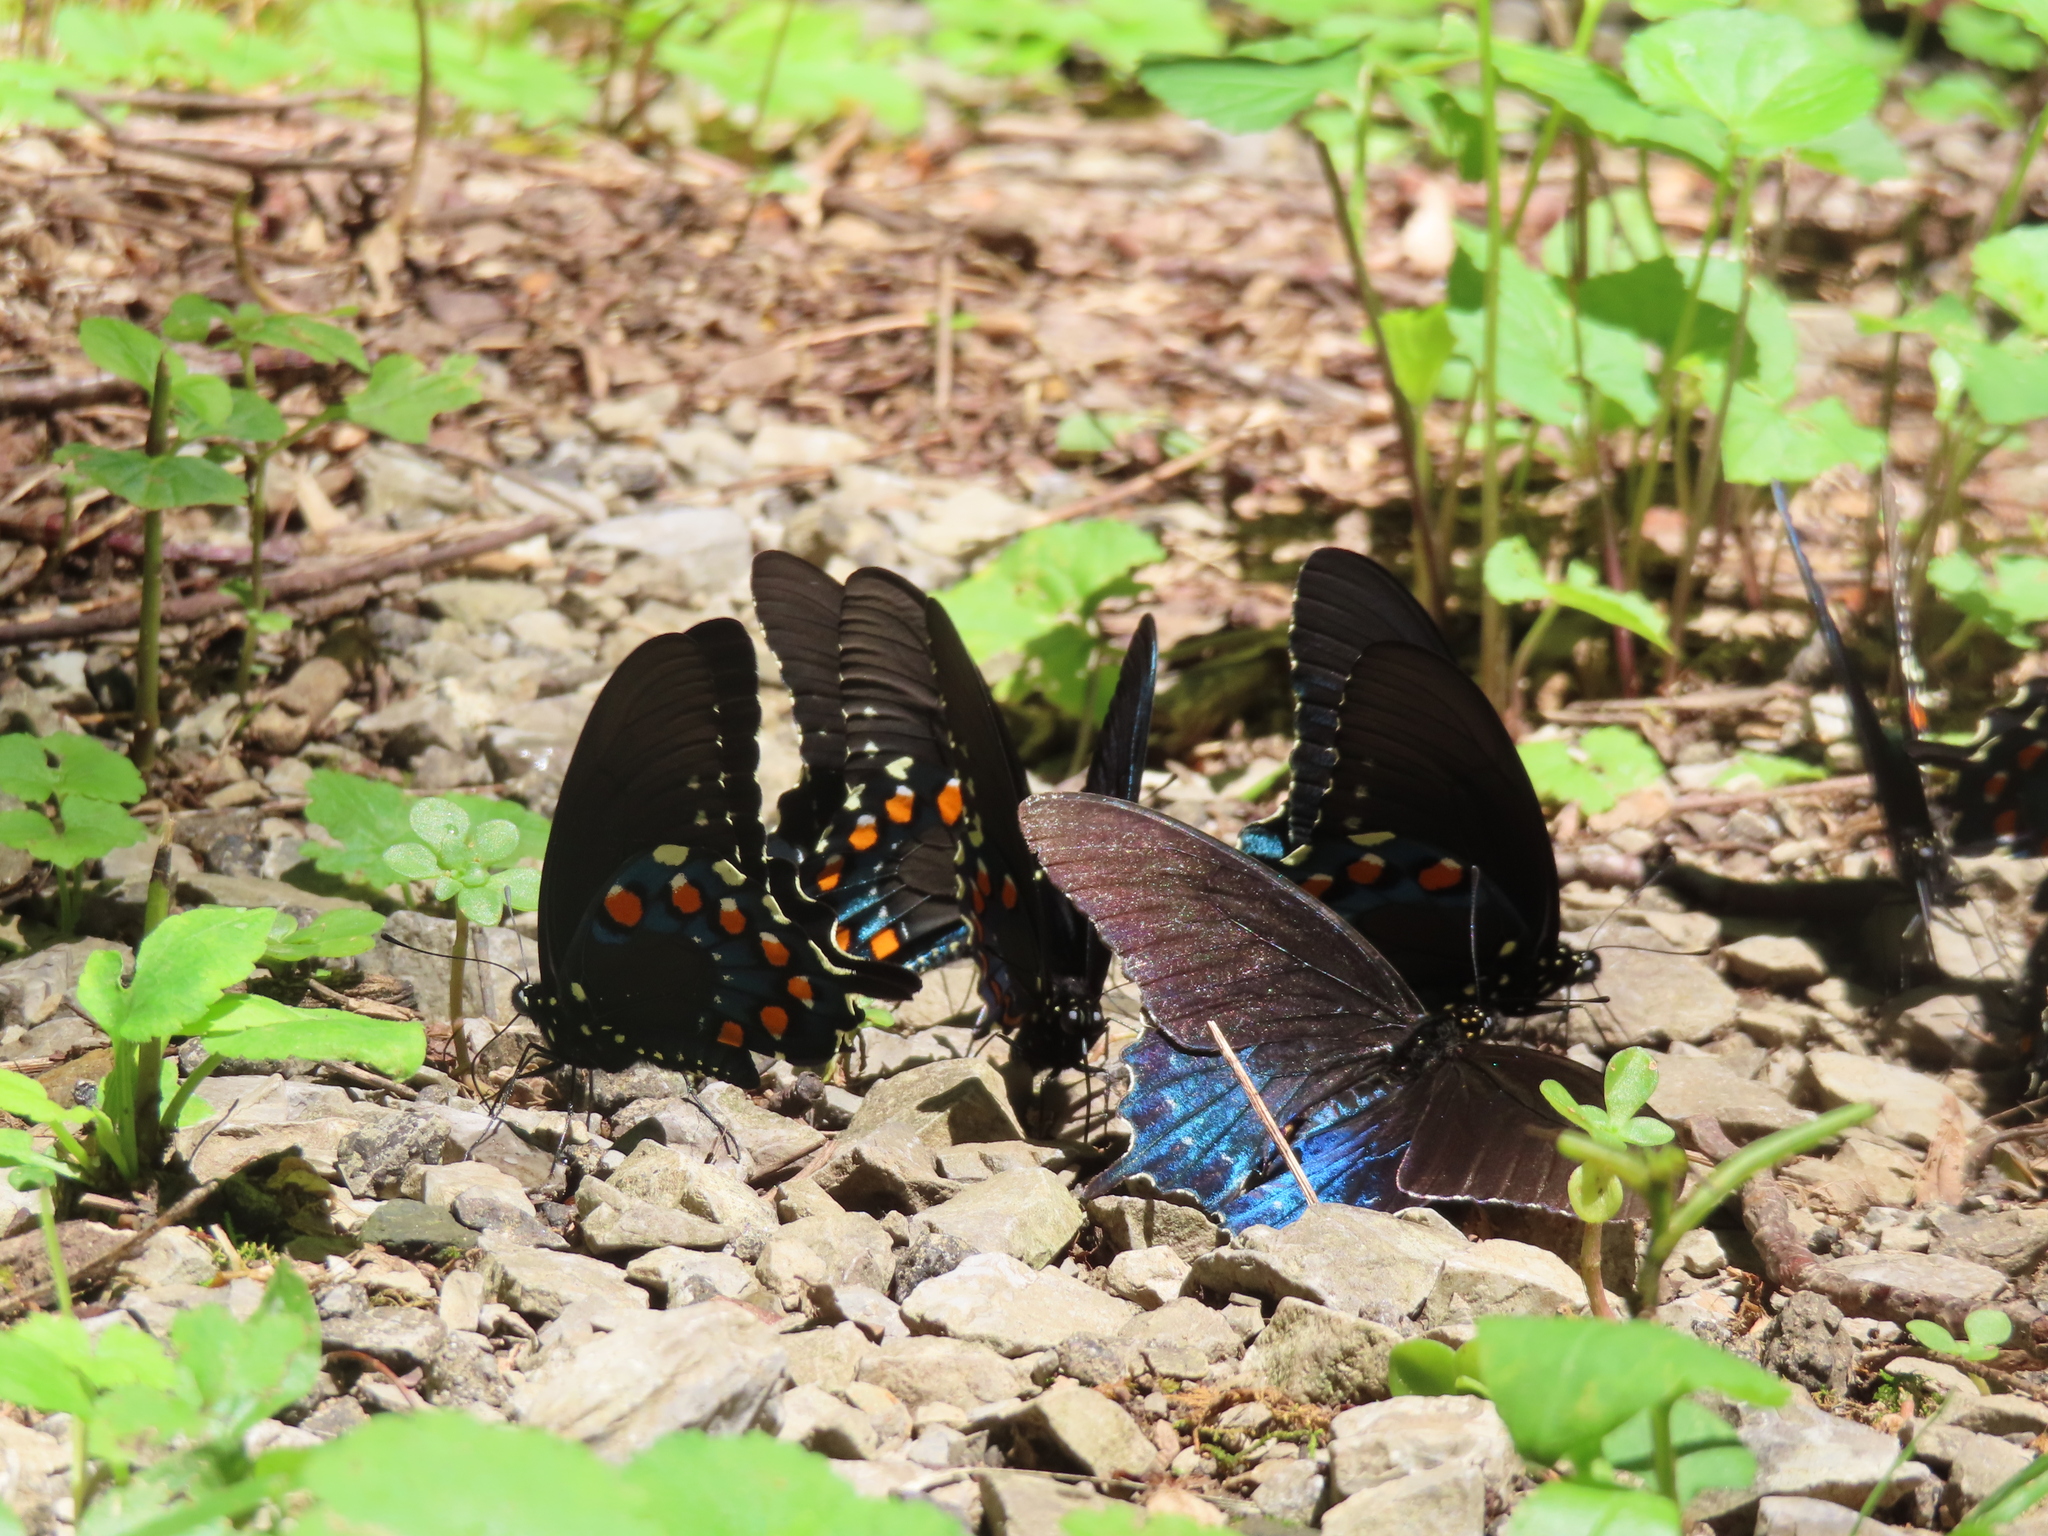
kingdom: Animalia
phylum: Arthropoda
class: Insecta
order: Lepidoptera
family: Papilionidae
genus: Battus
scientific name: Battus philenor
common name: Pipevine swallowtail
